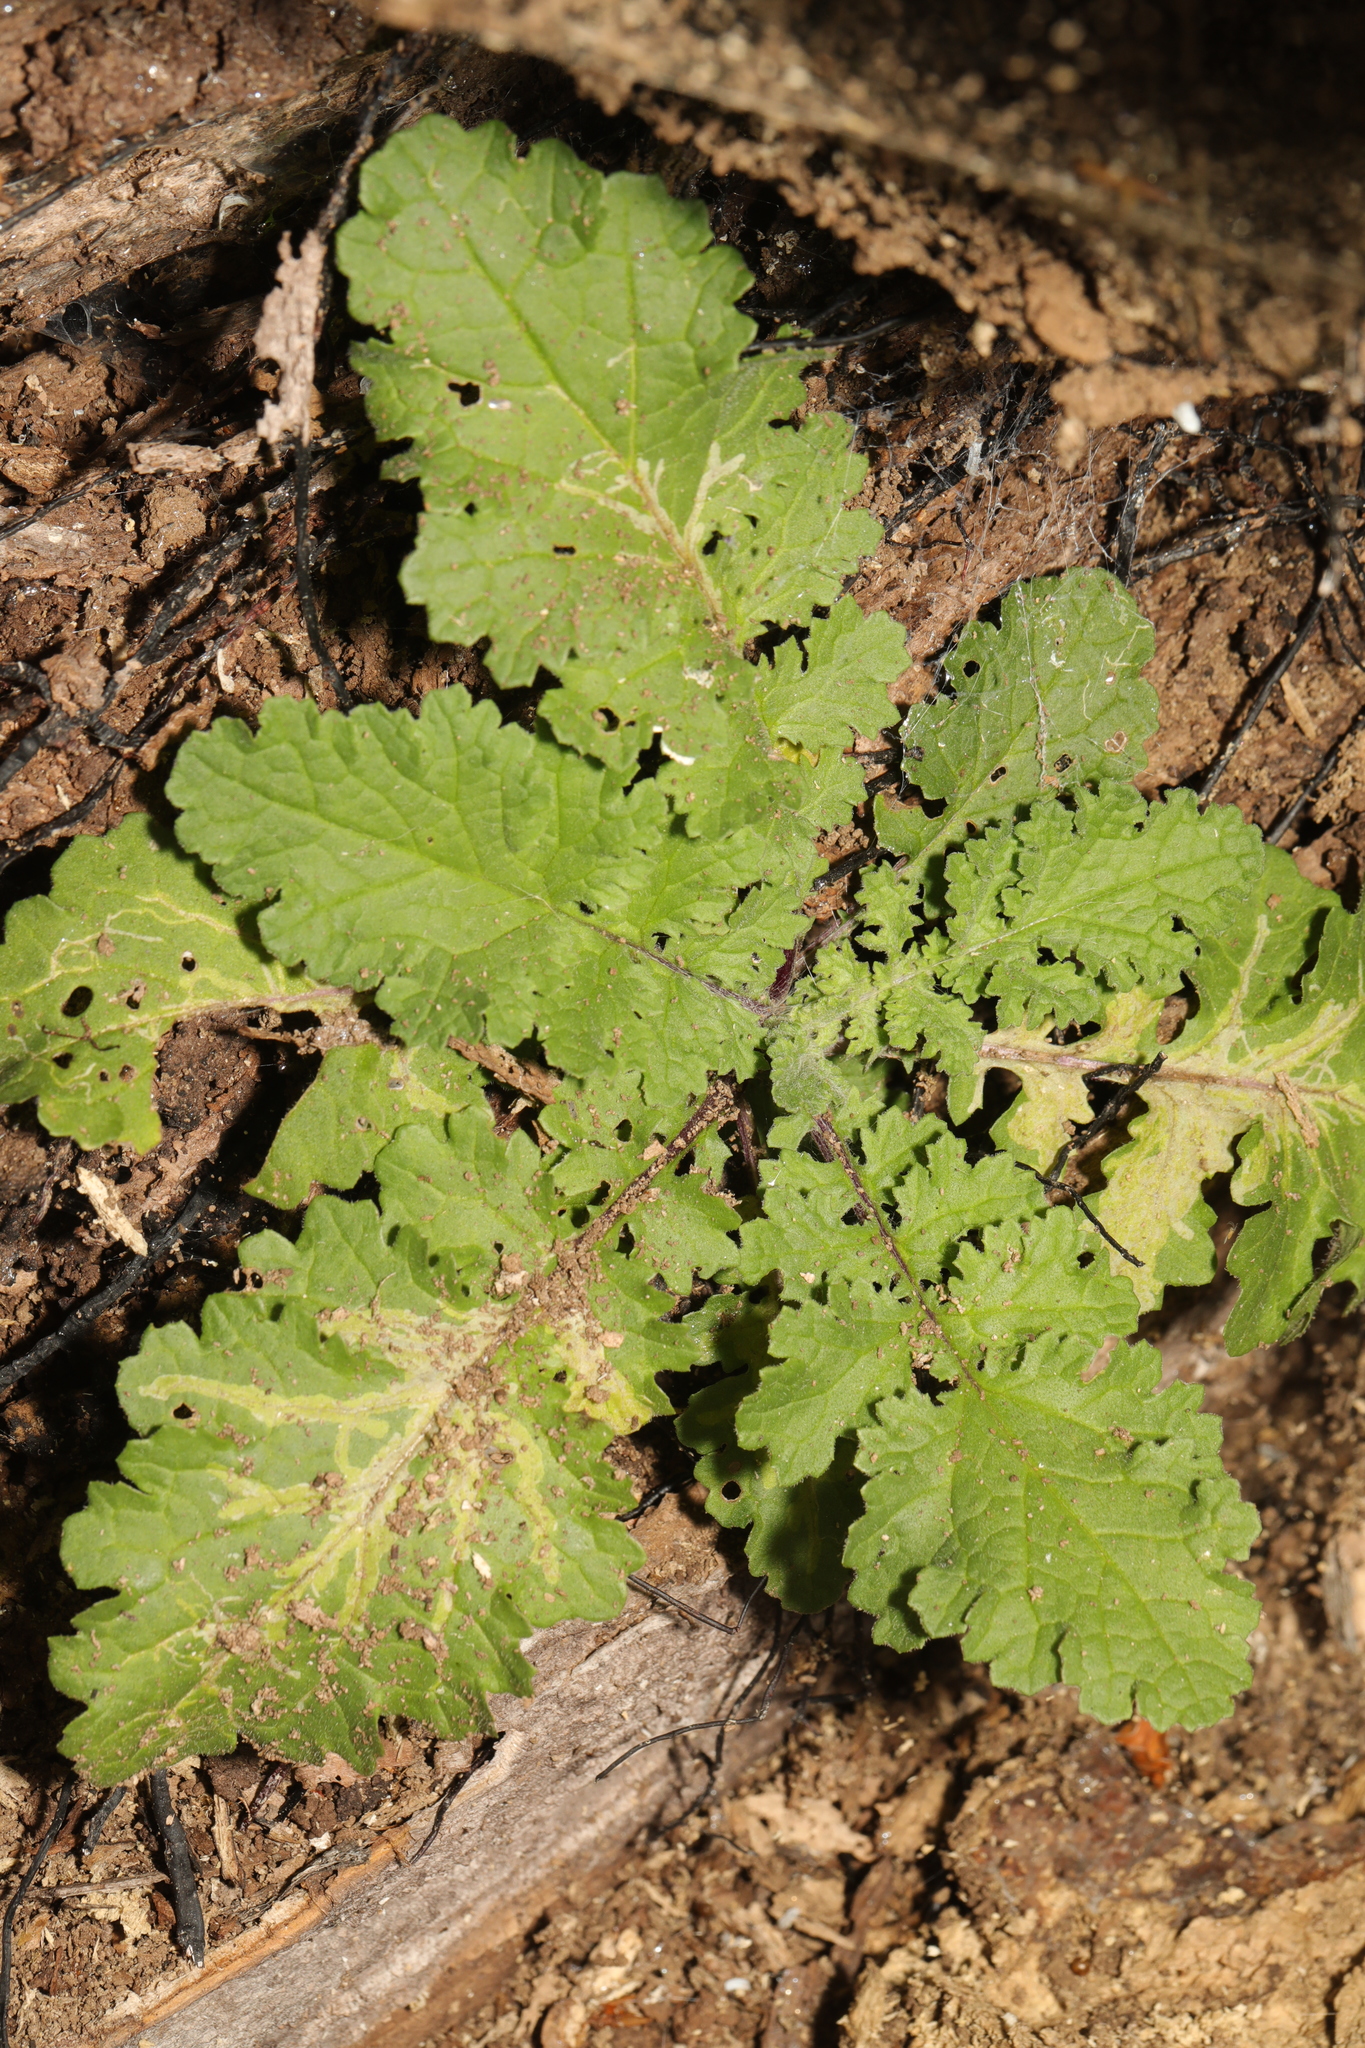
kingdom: Plantae
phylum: Tracheophyta
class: Magnoliopsida
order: Asterales
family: Asteraceae
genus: Jacobaea
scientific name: Jacobaea vulgaris
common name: Stinking willie
